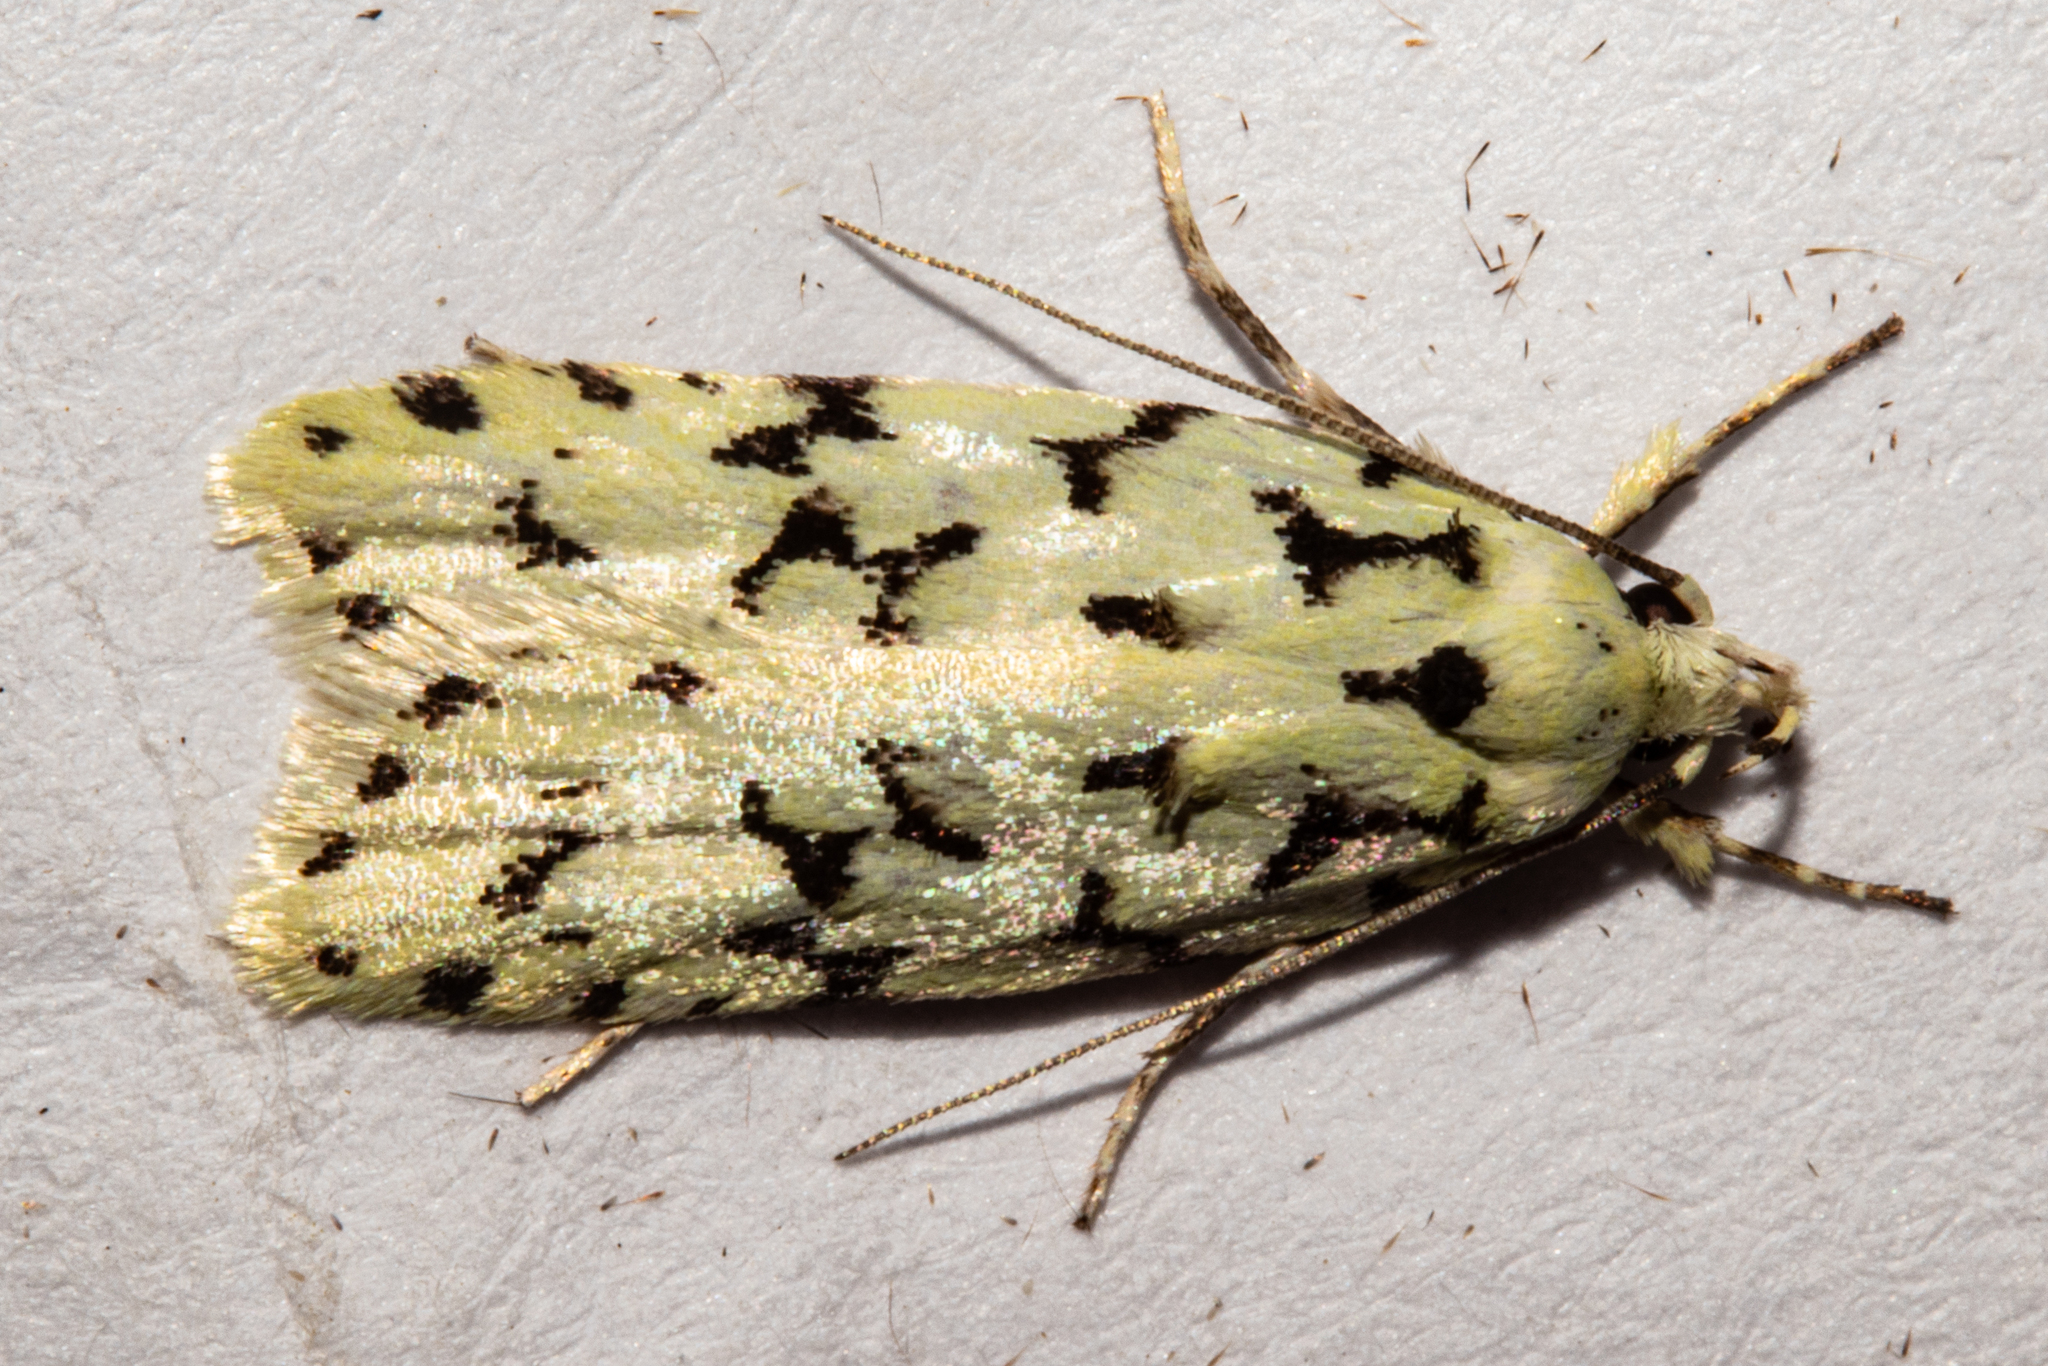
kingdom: Animalia
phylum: Arthropoda
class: Insecta
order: Lepidoptera
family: Oecophoridae
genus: Izatha
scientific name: Izatha huttoni
